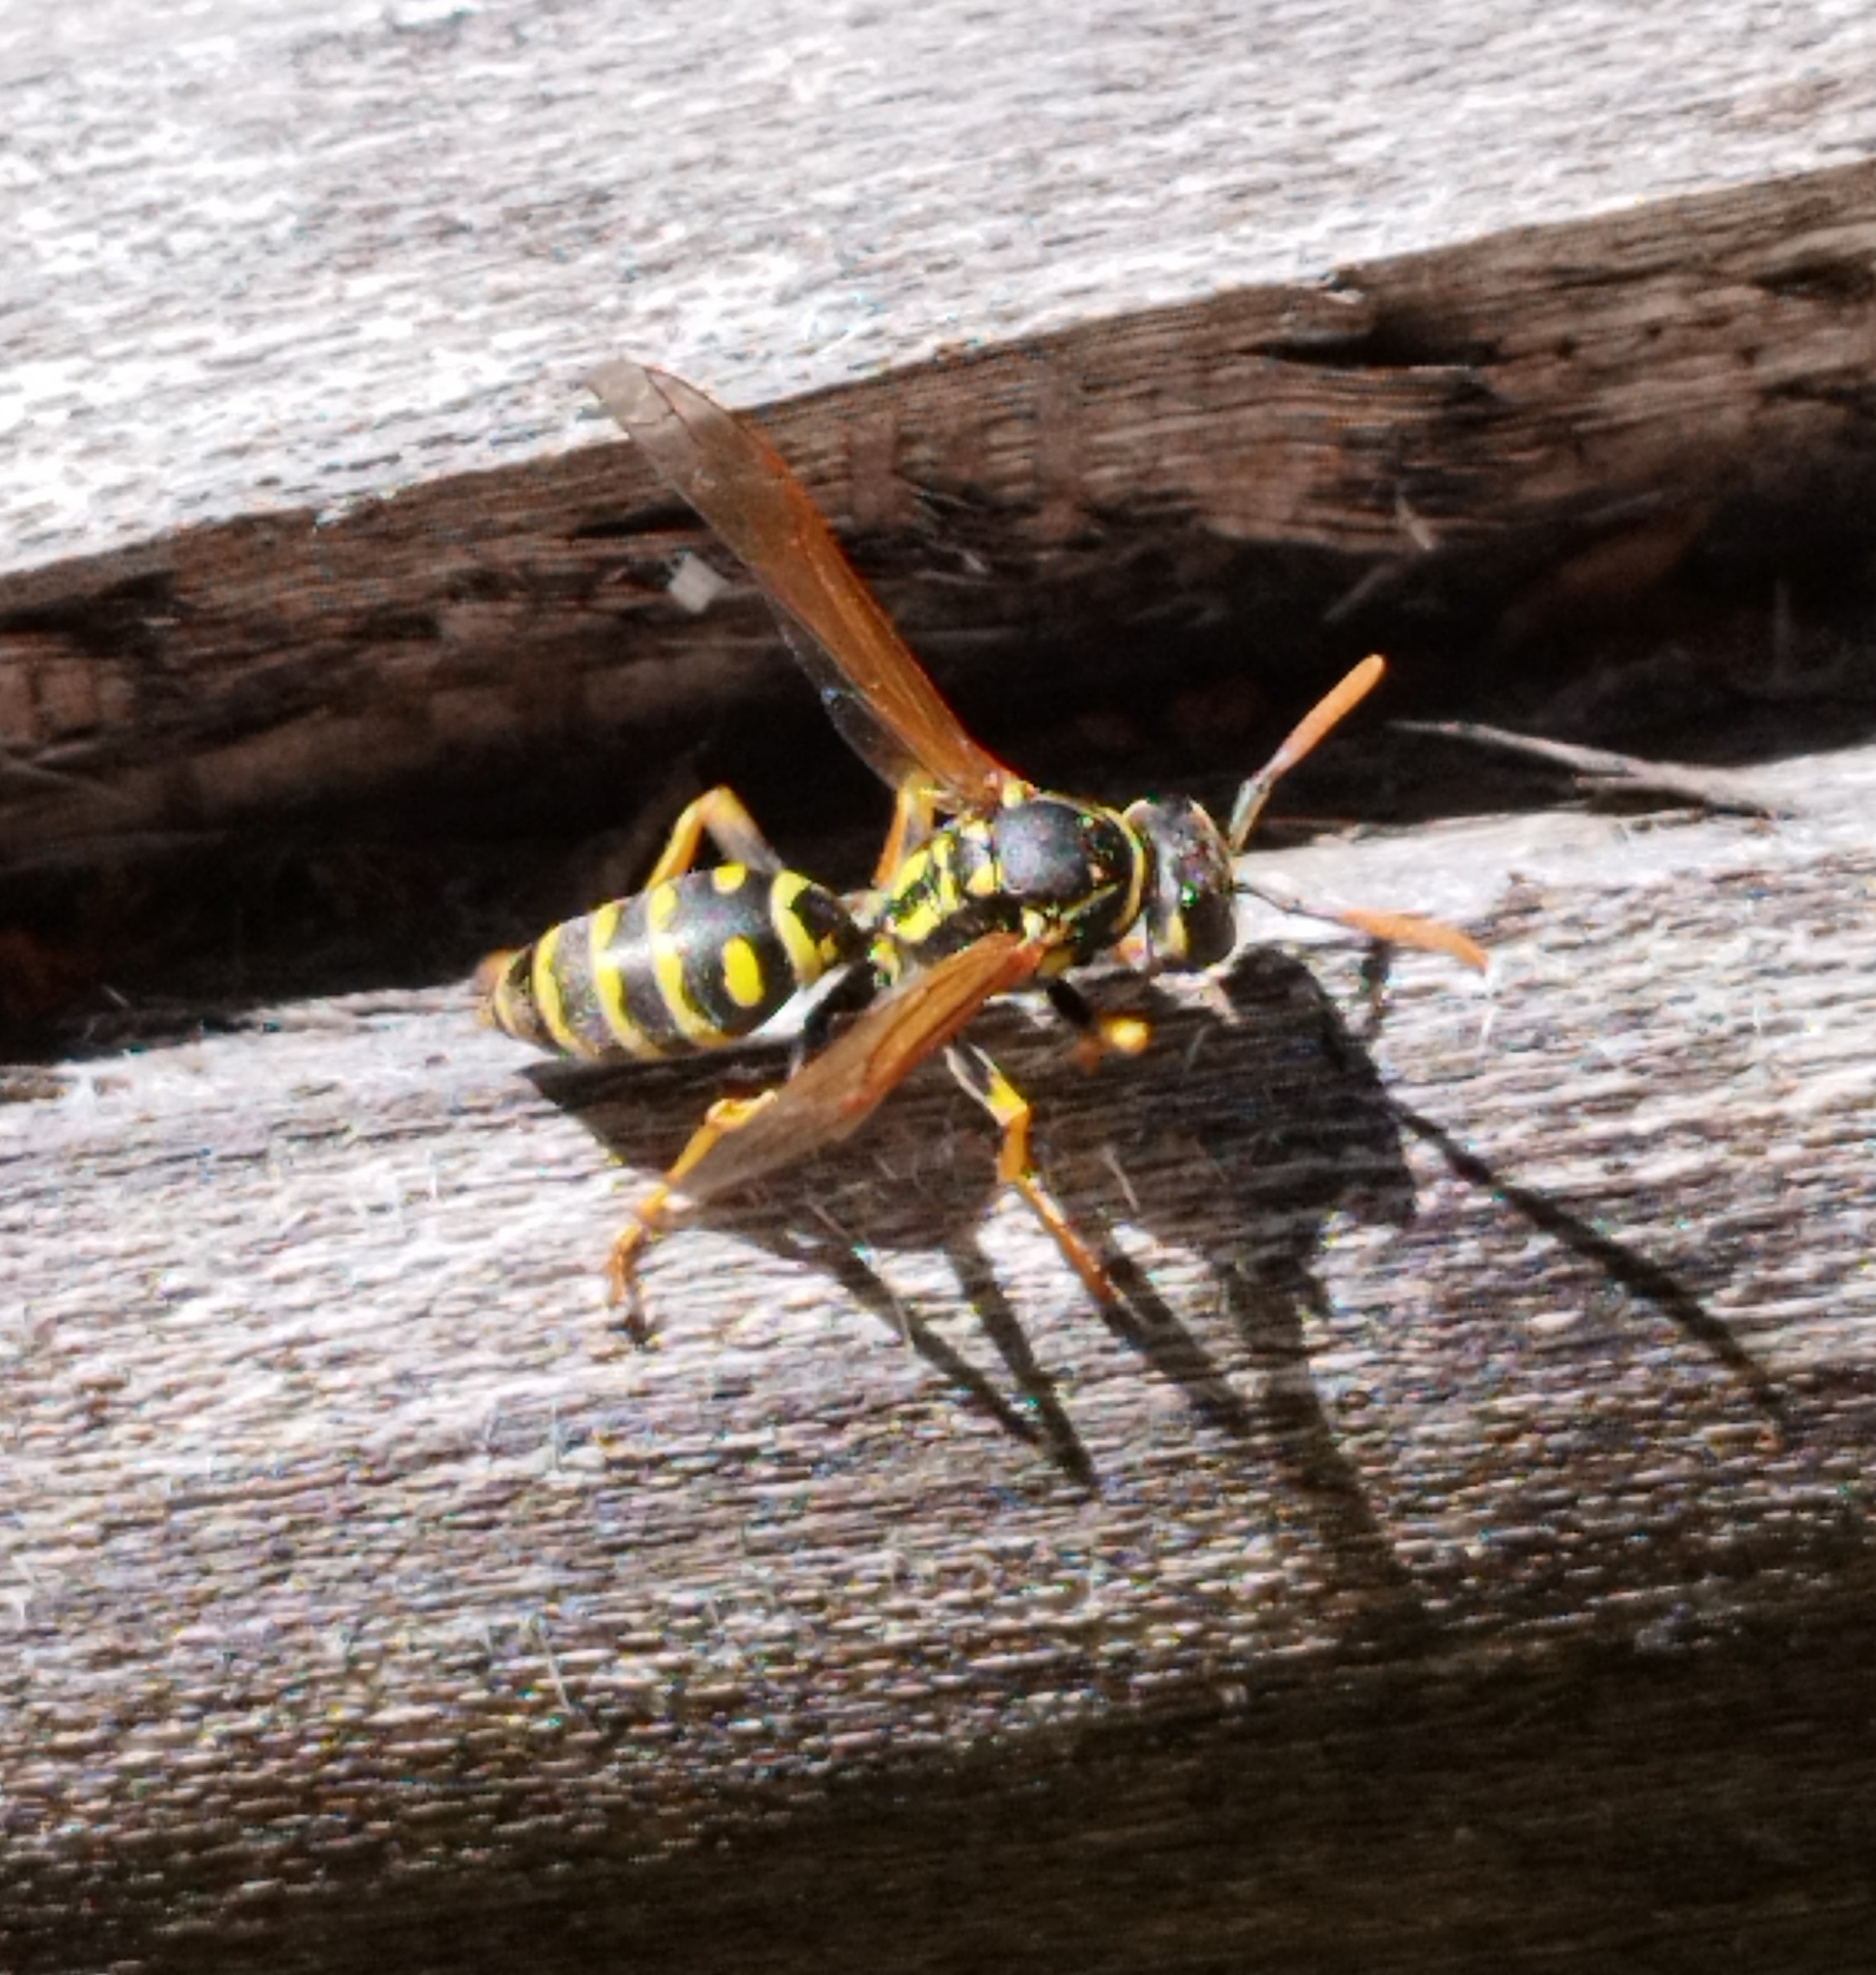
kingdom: Animalia
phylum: Arthropoda
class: Insecta
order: Hymenoptera
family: Eumenidae
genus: Polistes
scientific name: Polistes dominula
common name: Paper wasp
